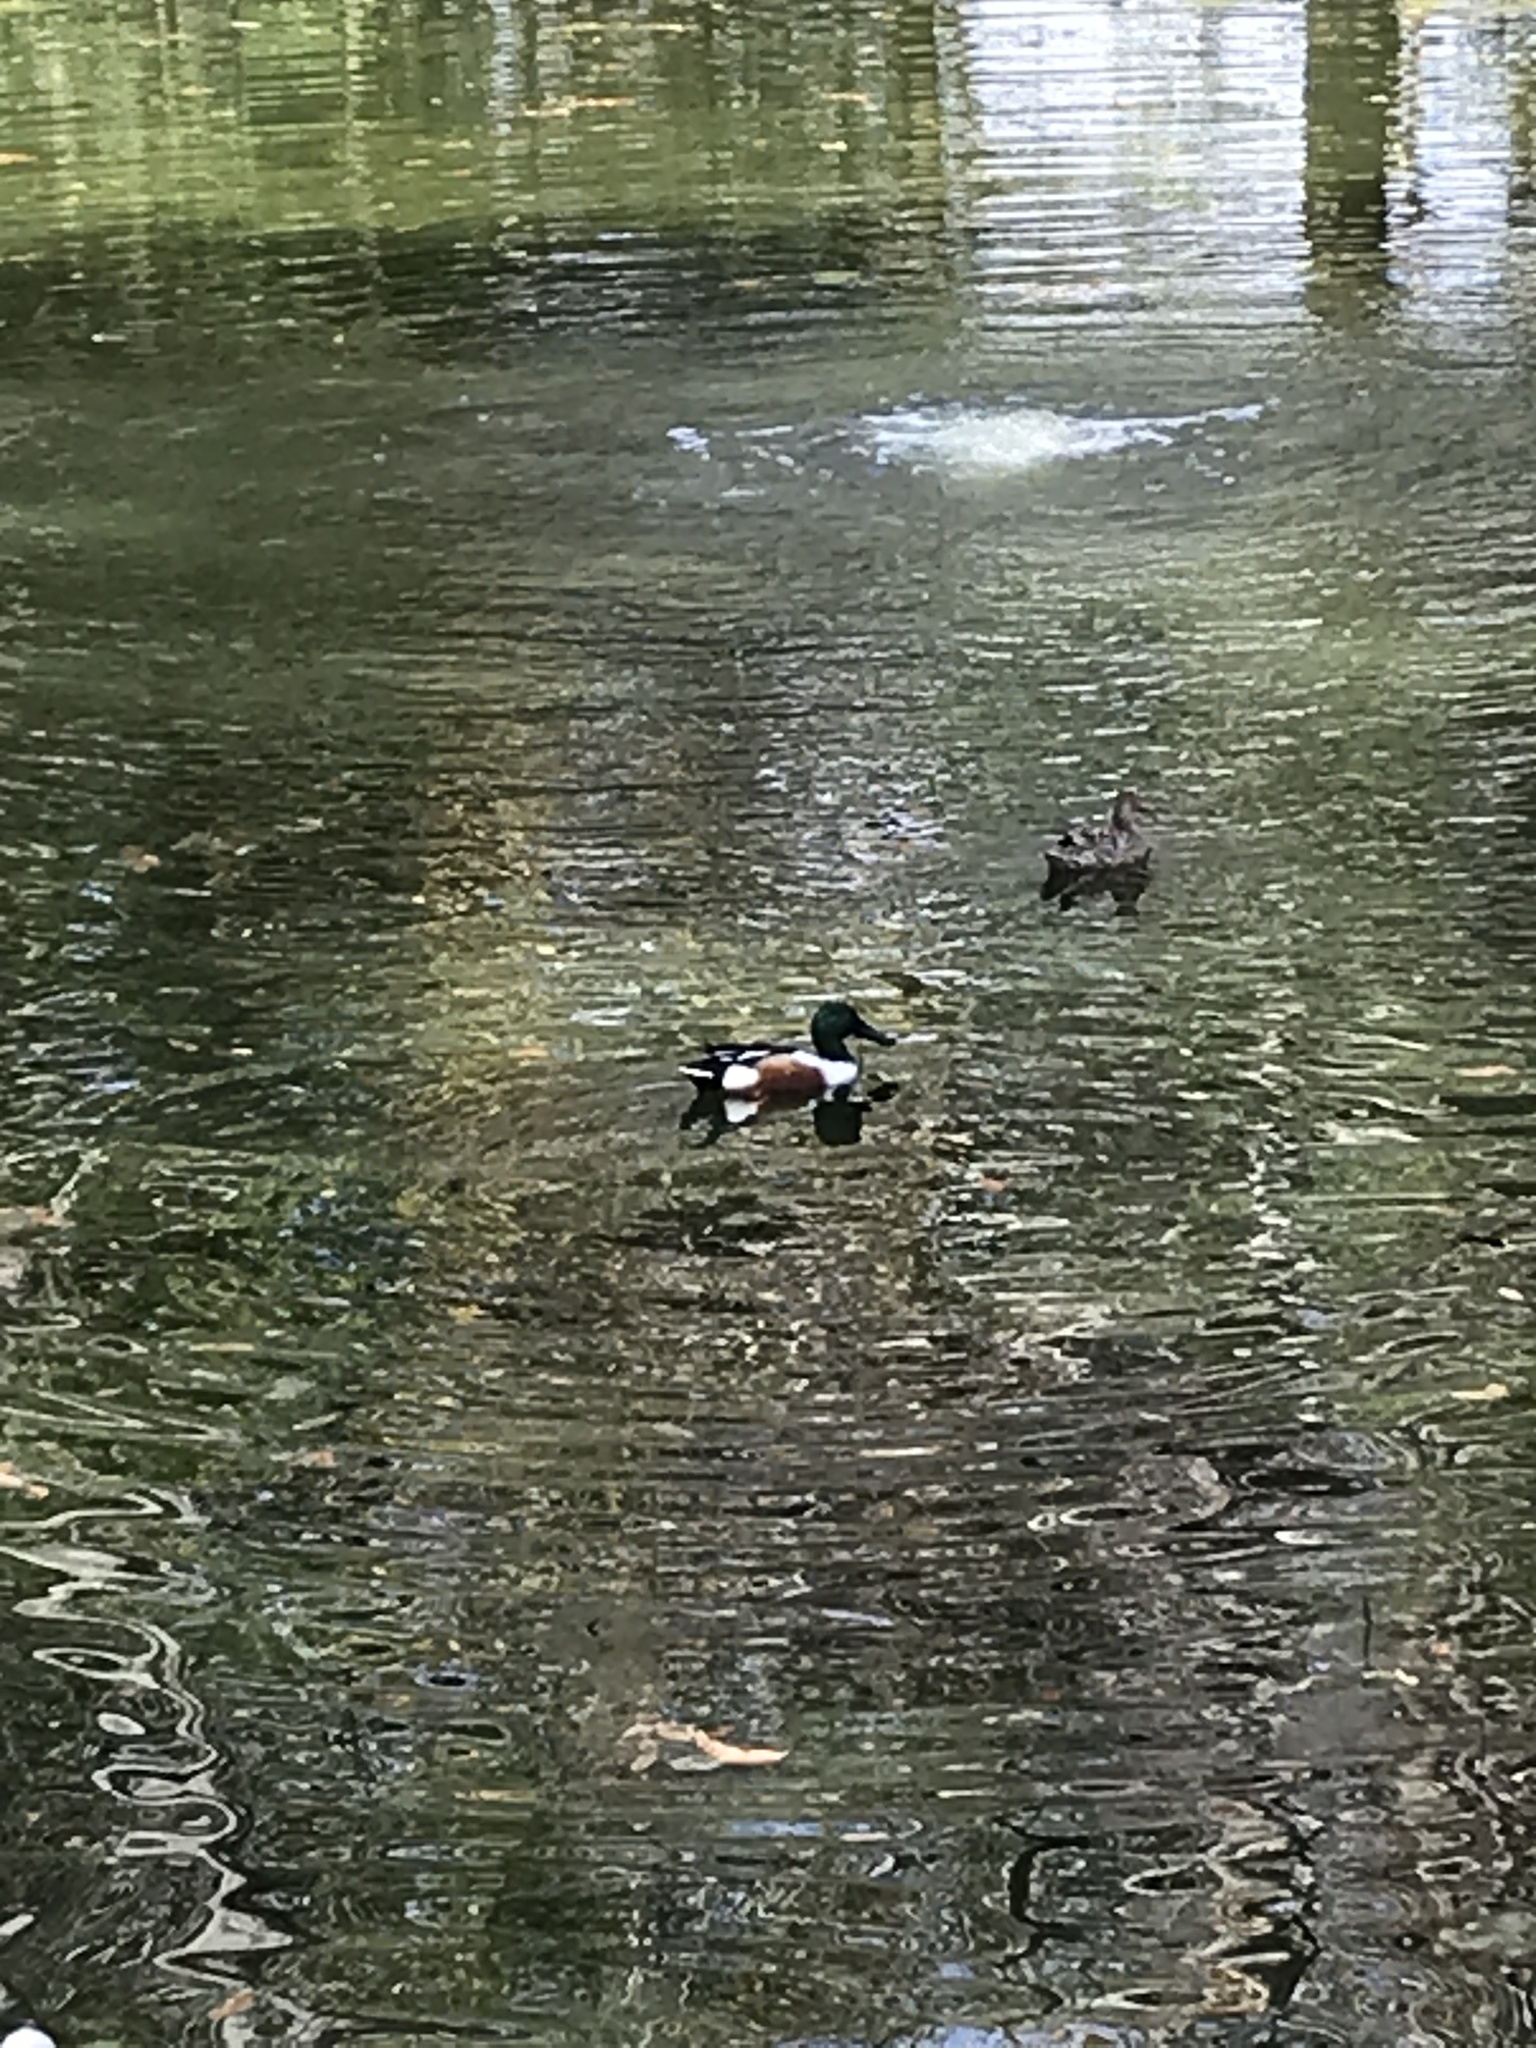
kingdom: Animalia
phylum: Chordata
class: Aves
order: Anseriformes
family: Anatidae
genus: Spatula
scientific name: Spatula clypeata
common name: Northern shoveler
